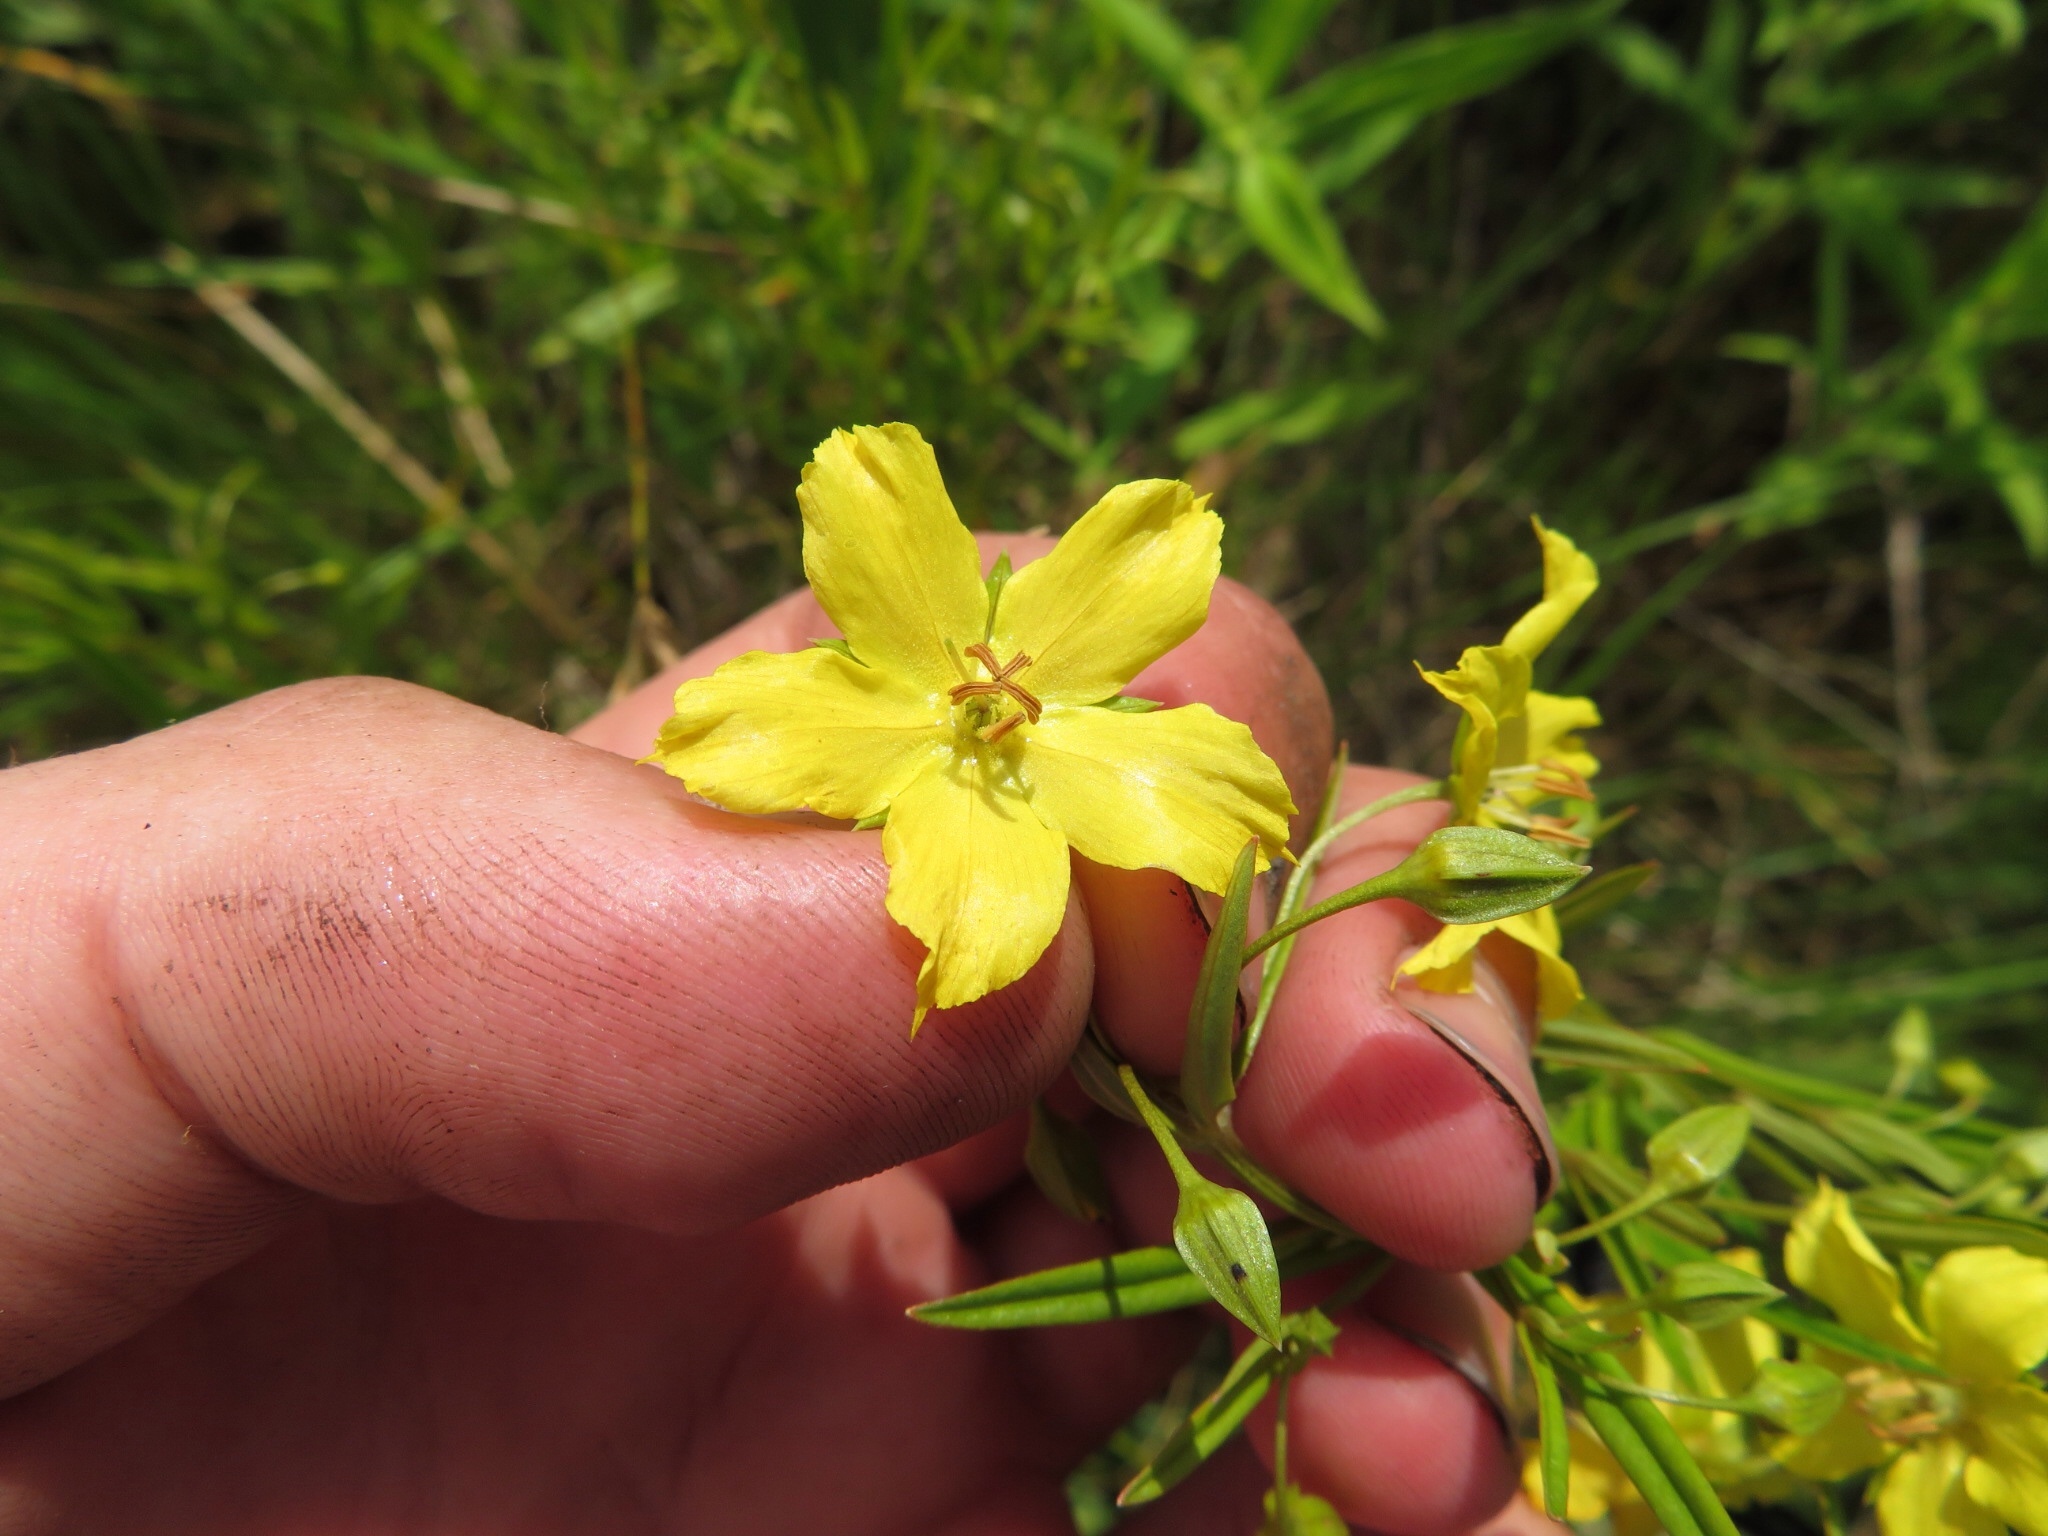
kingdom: Plantae
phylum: Tracheophyta
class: Magnoliopsida
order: Ericales
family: Primulaceae
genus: Lysimachia
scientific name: Lysimachia quadriflora
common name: Four-flowered loosestrife
